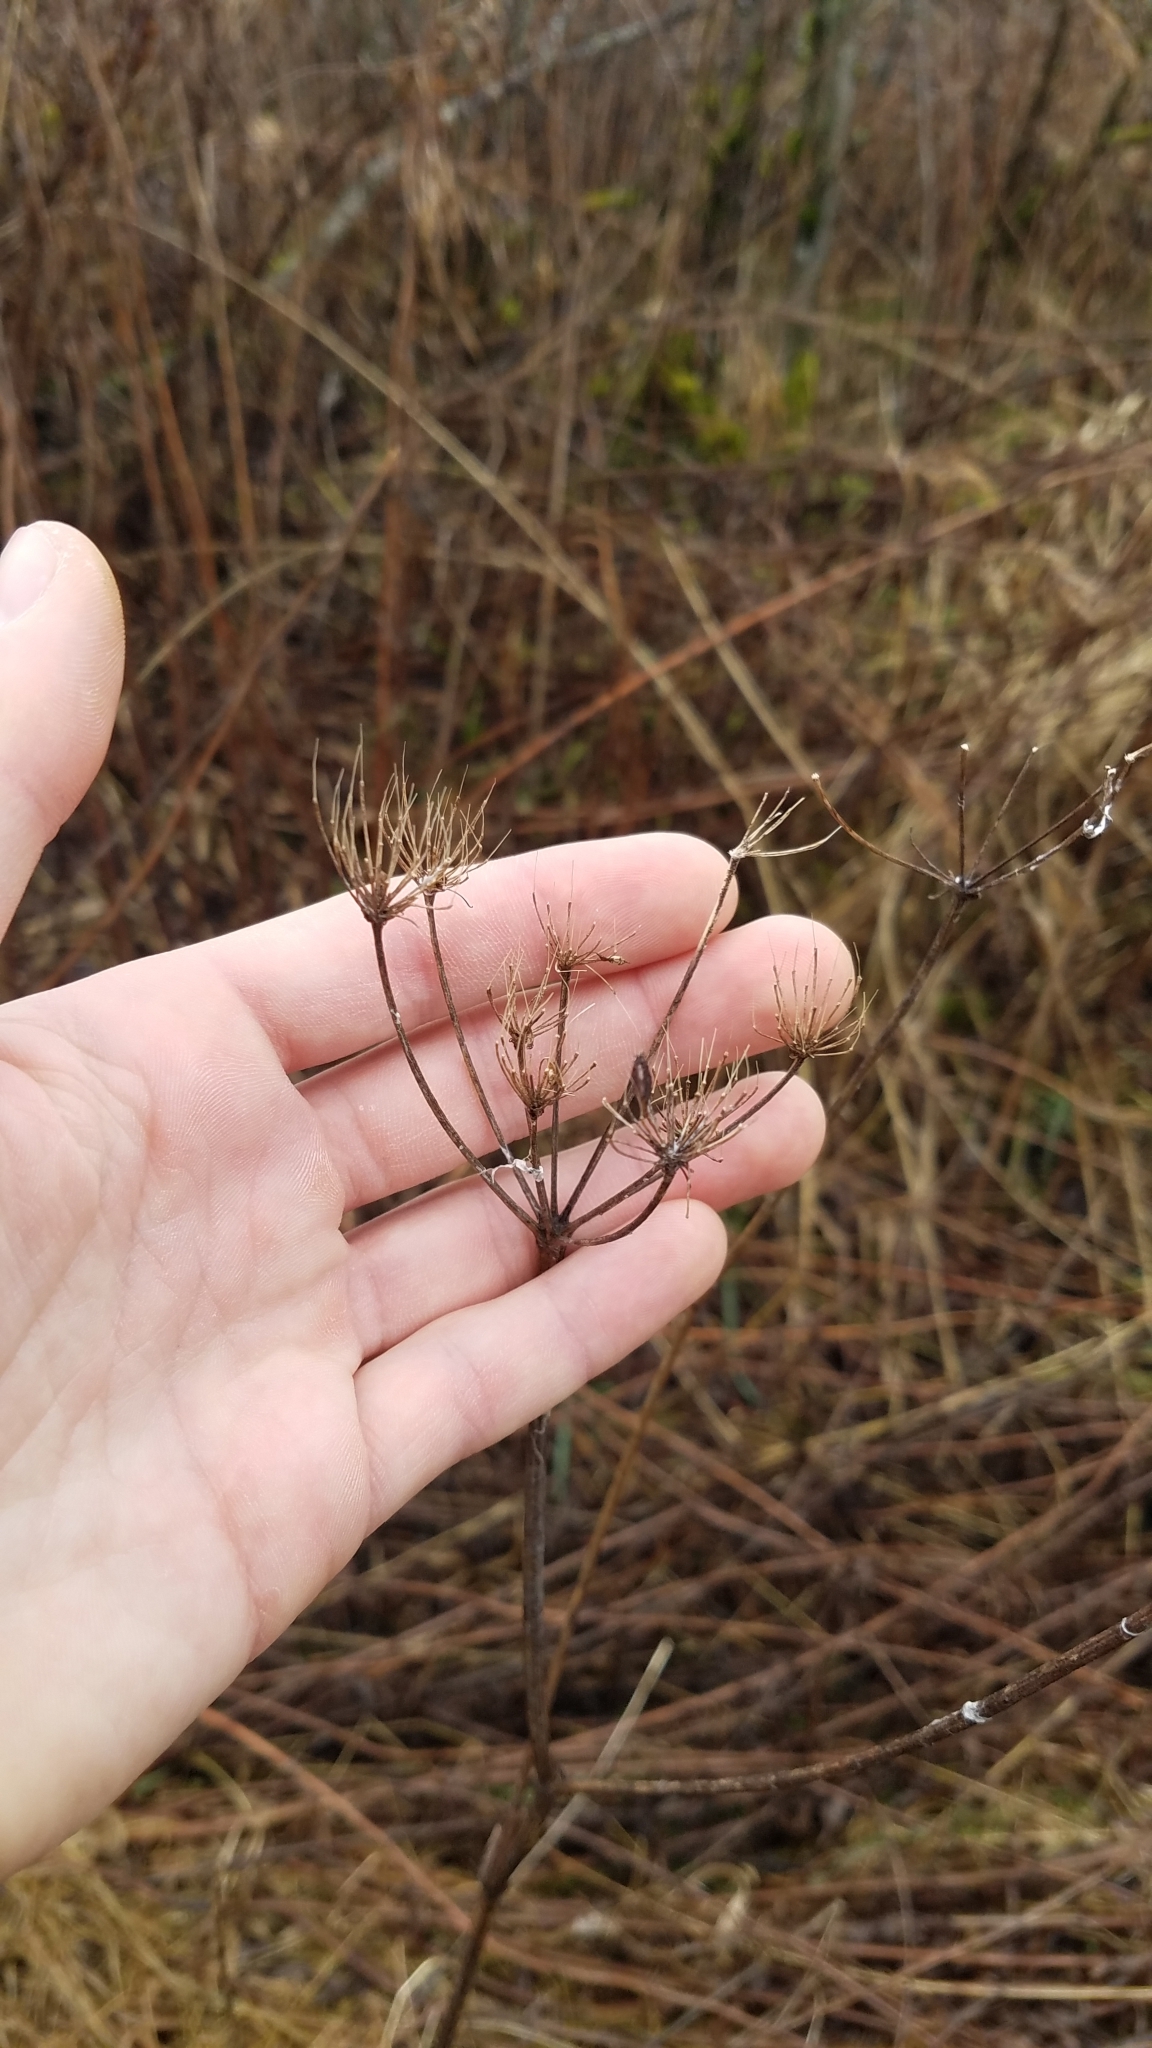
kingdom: Plantae
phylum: Tracheophyta
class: Magnoliopsida
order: Apiales
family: Apiaceae
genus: Heracleum
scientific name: Heracleum sphondylium
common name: Hogweed
